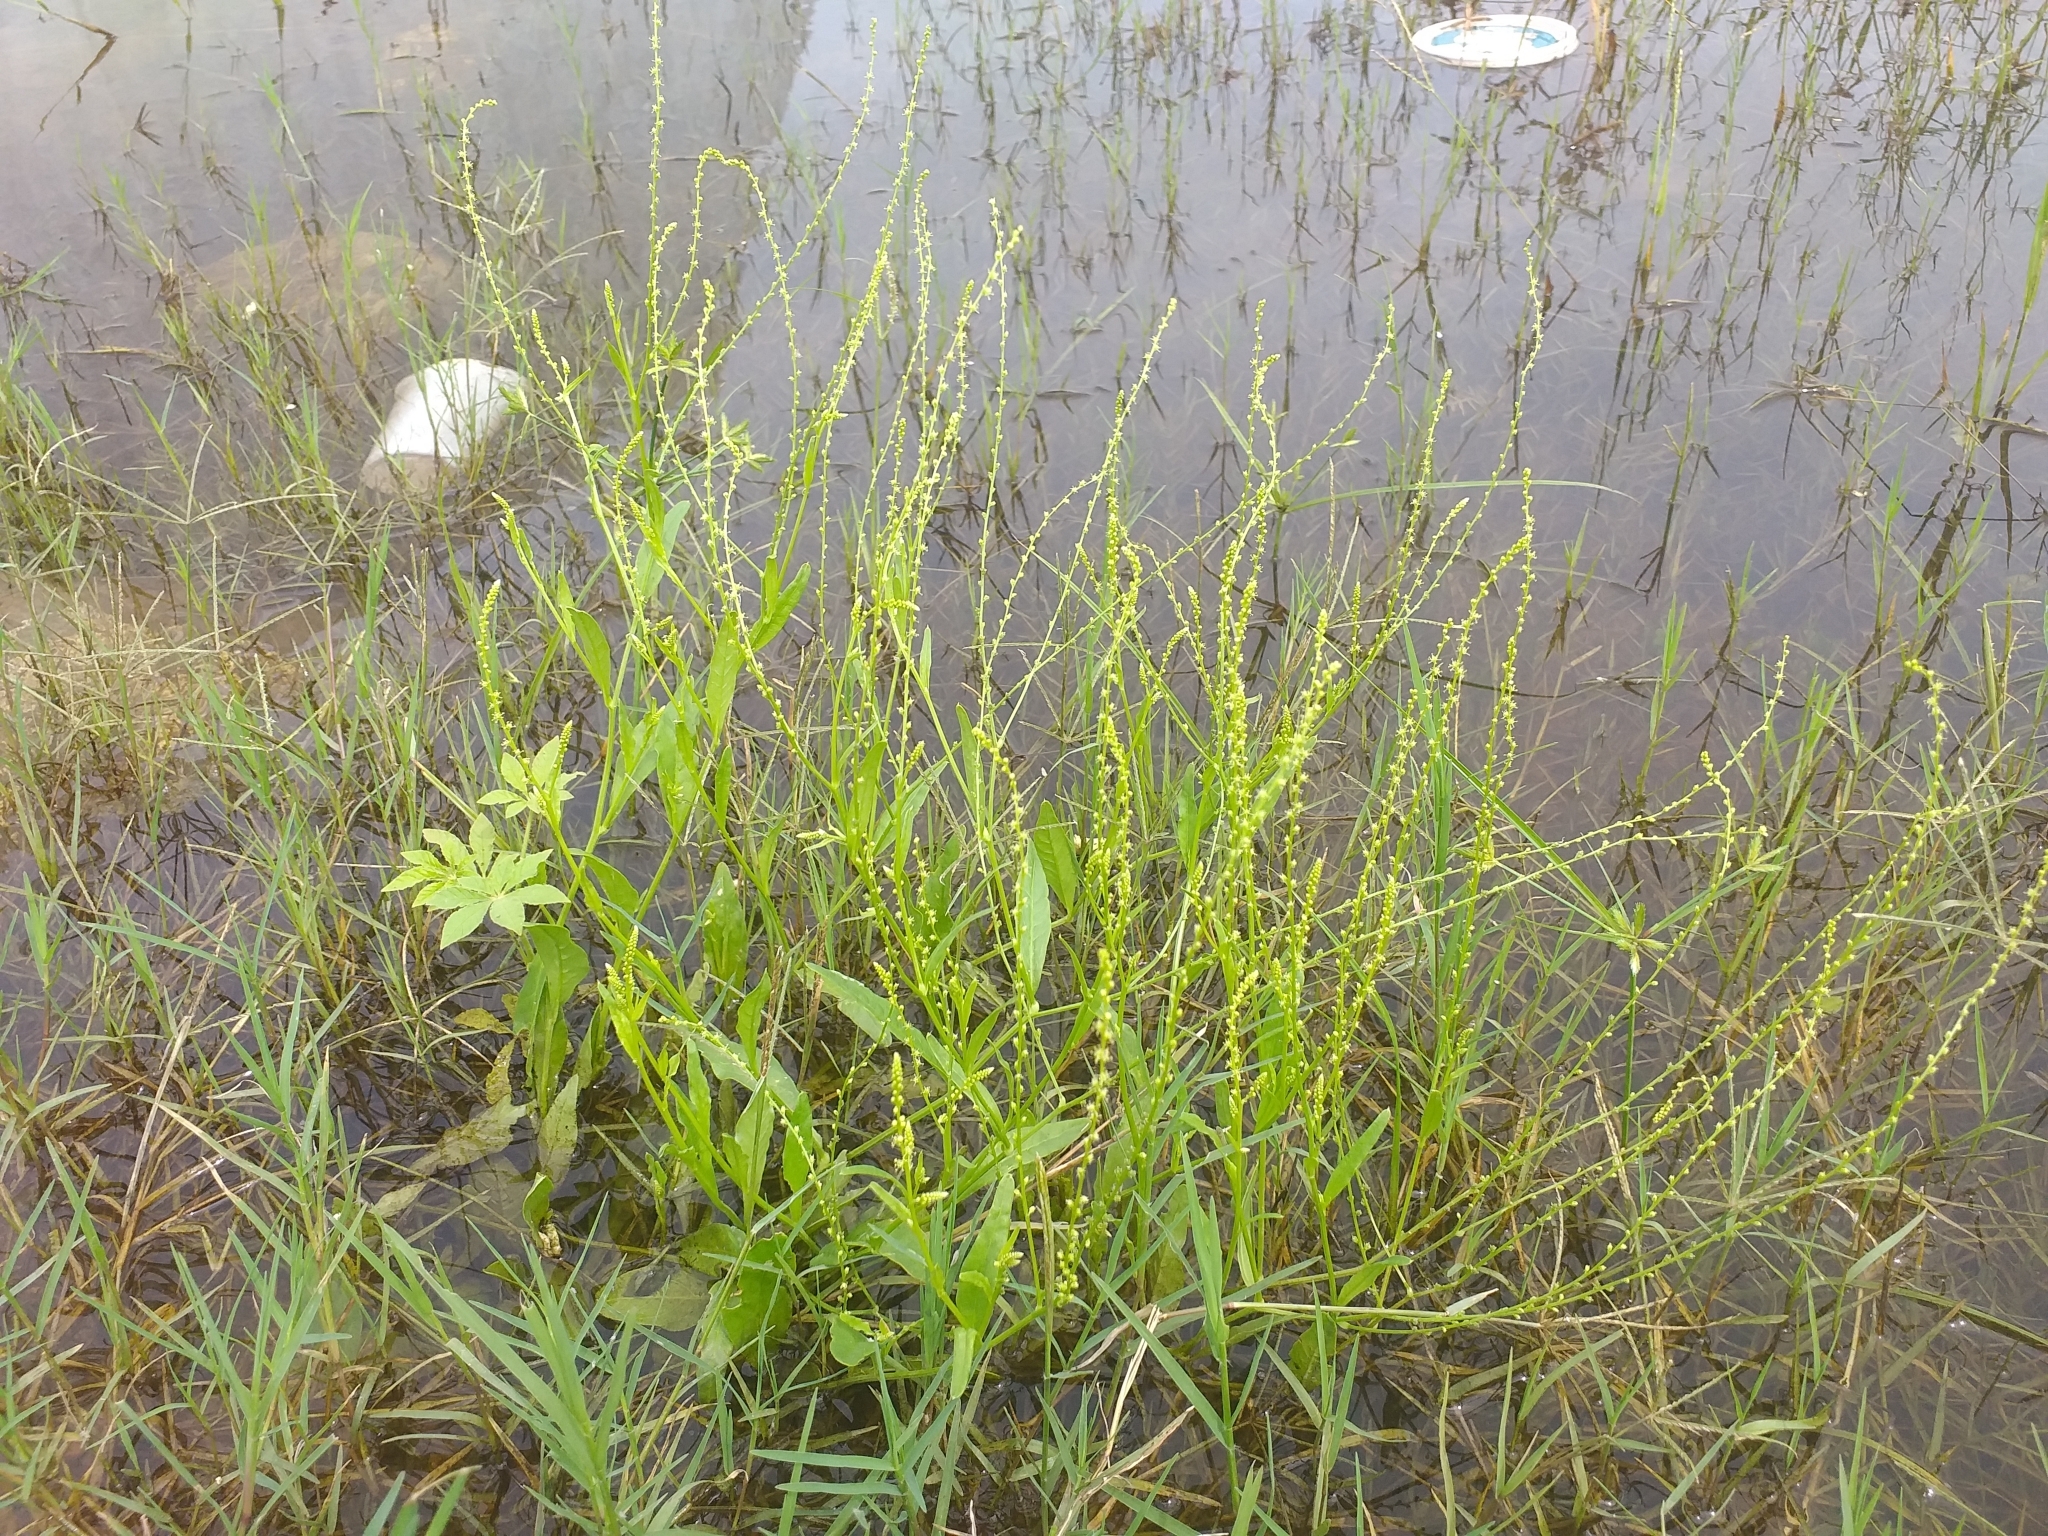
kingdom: Plantae
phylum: Tracheophyta
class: Magnoliopsida
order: Caryophyllales
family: Microteaceae
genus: Microtea
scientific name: Microtea celosioides
